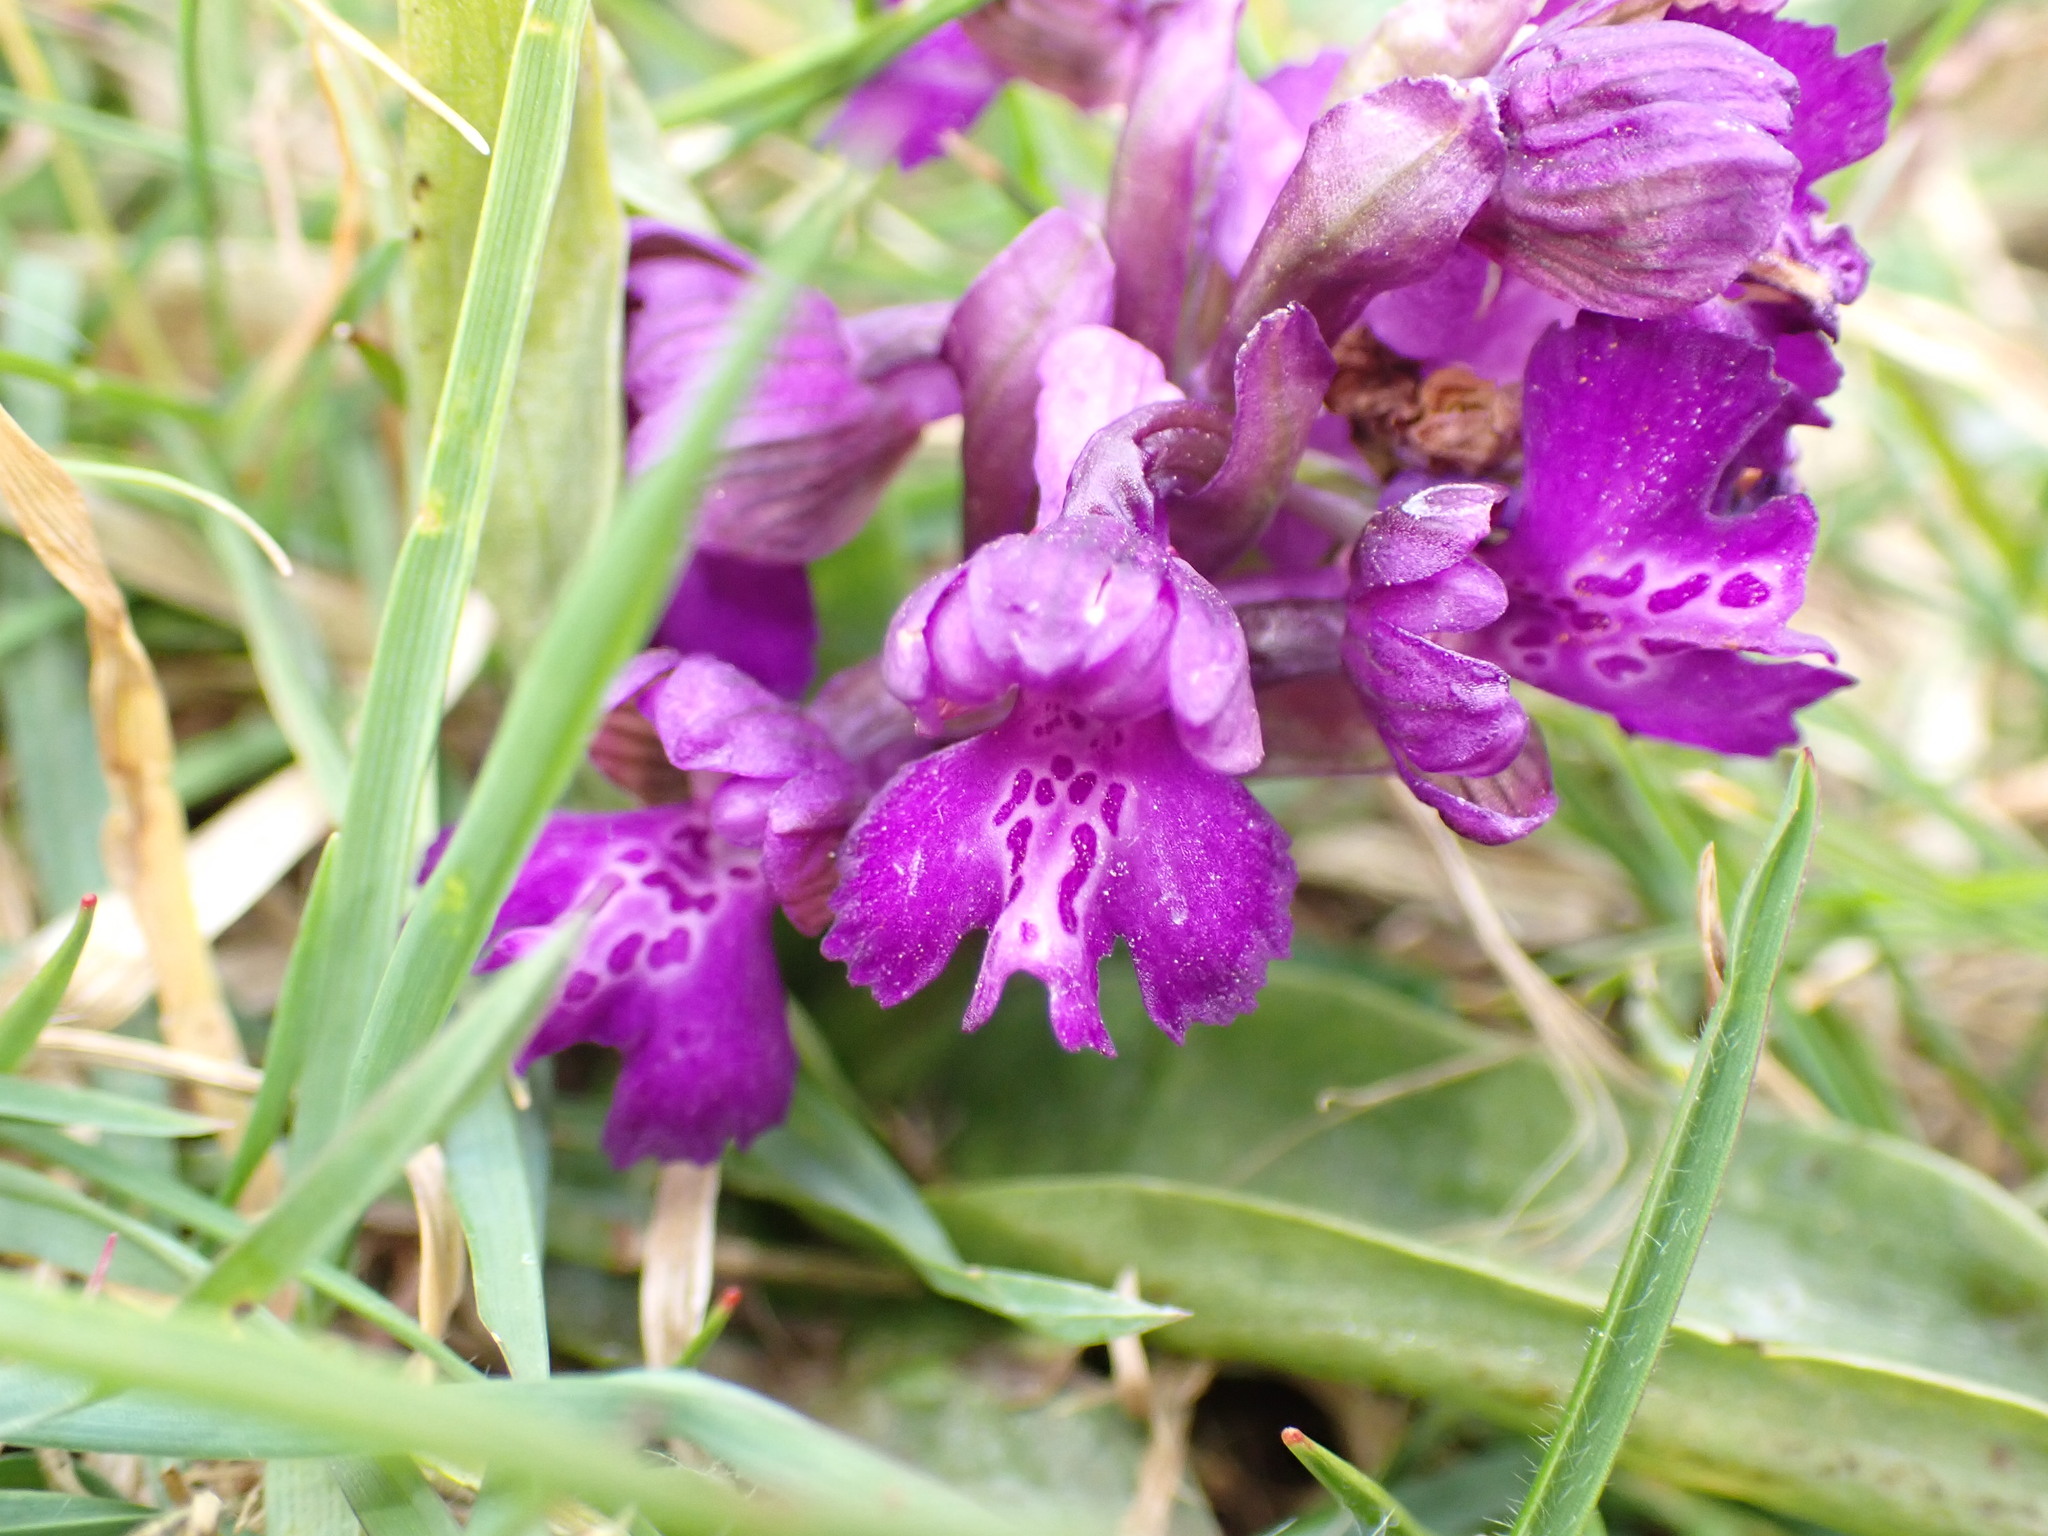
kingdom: Plantae
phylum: Tracheophyta
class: Liliopsida
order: Asparagales
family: Orchidaceae
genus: Anacamptis
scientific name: Anacamptis morio
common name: Green-winged orchid
